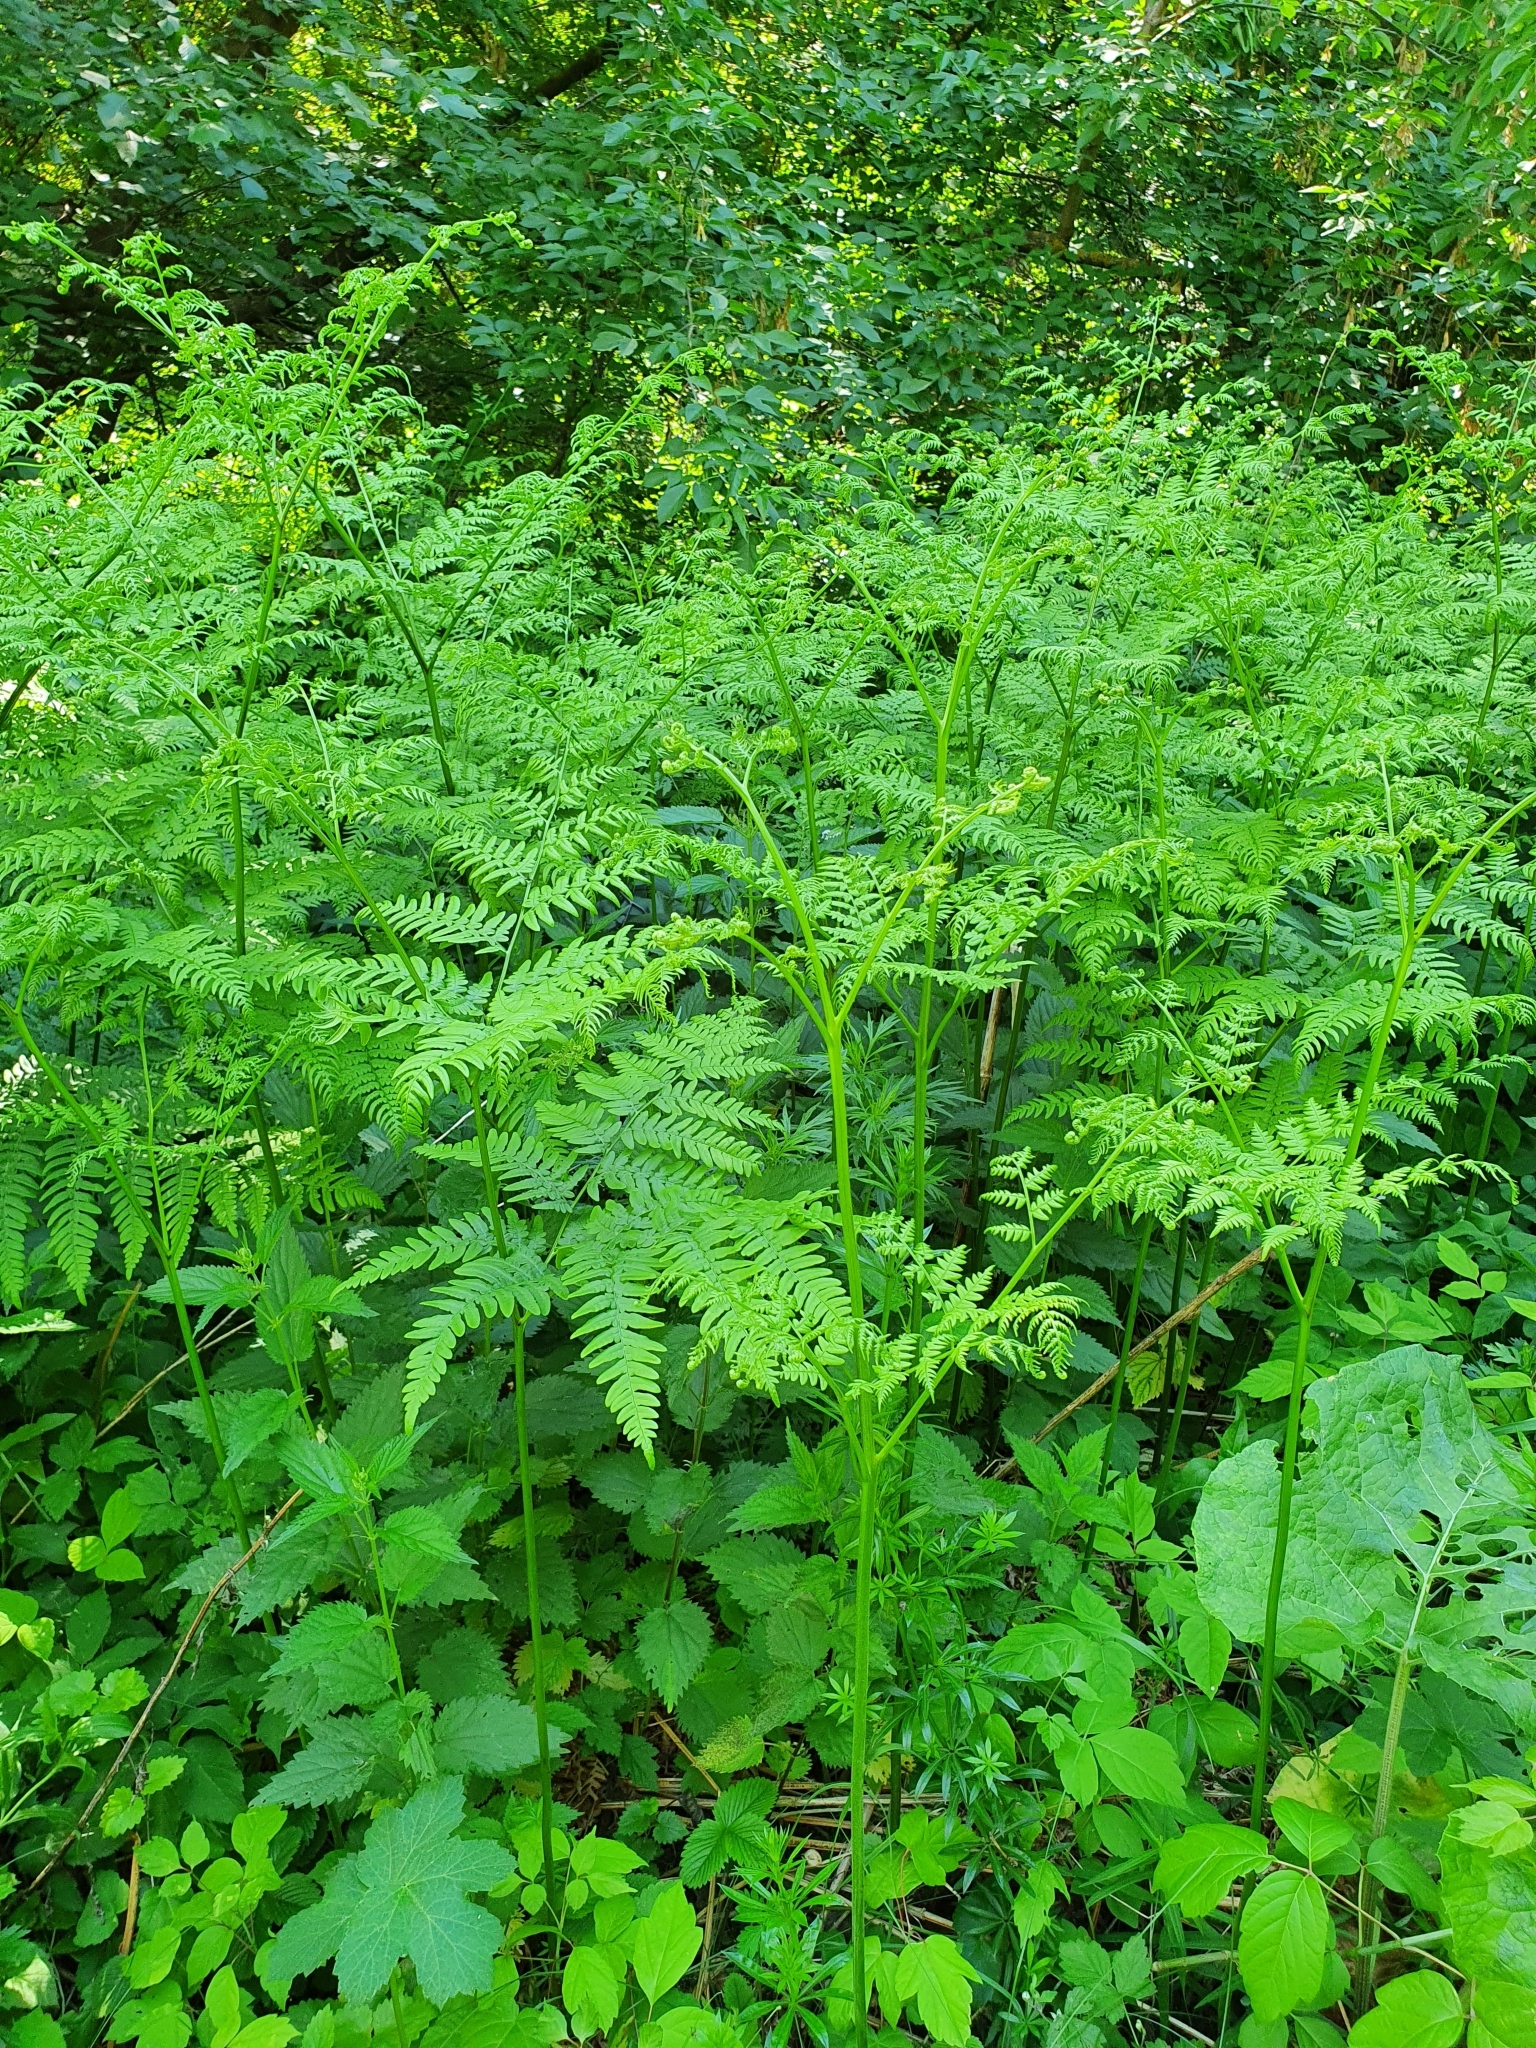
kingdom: Plantae
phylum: Tracheophyta
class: Polypodiopsida
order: Polypodiales
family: Dennstaedtiaceae
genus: Pteridium
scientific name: Pteridium aquilinum
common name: Bracken
